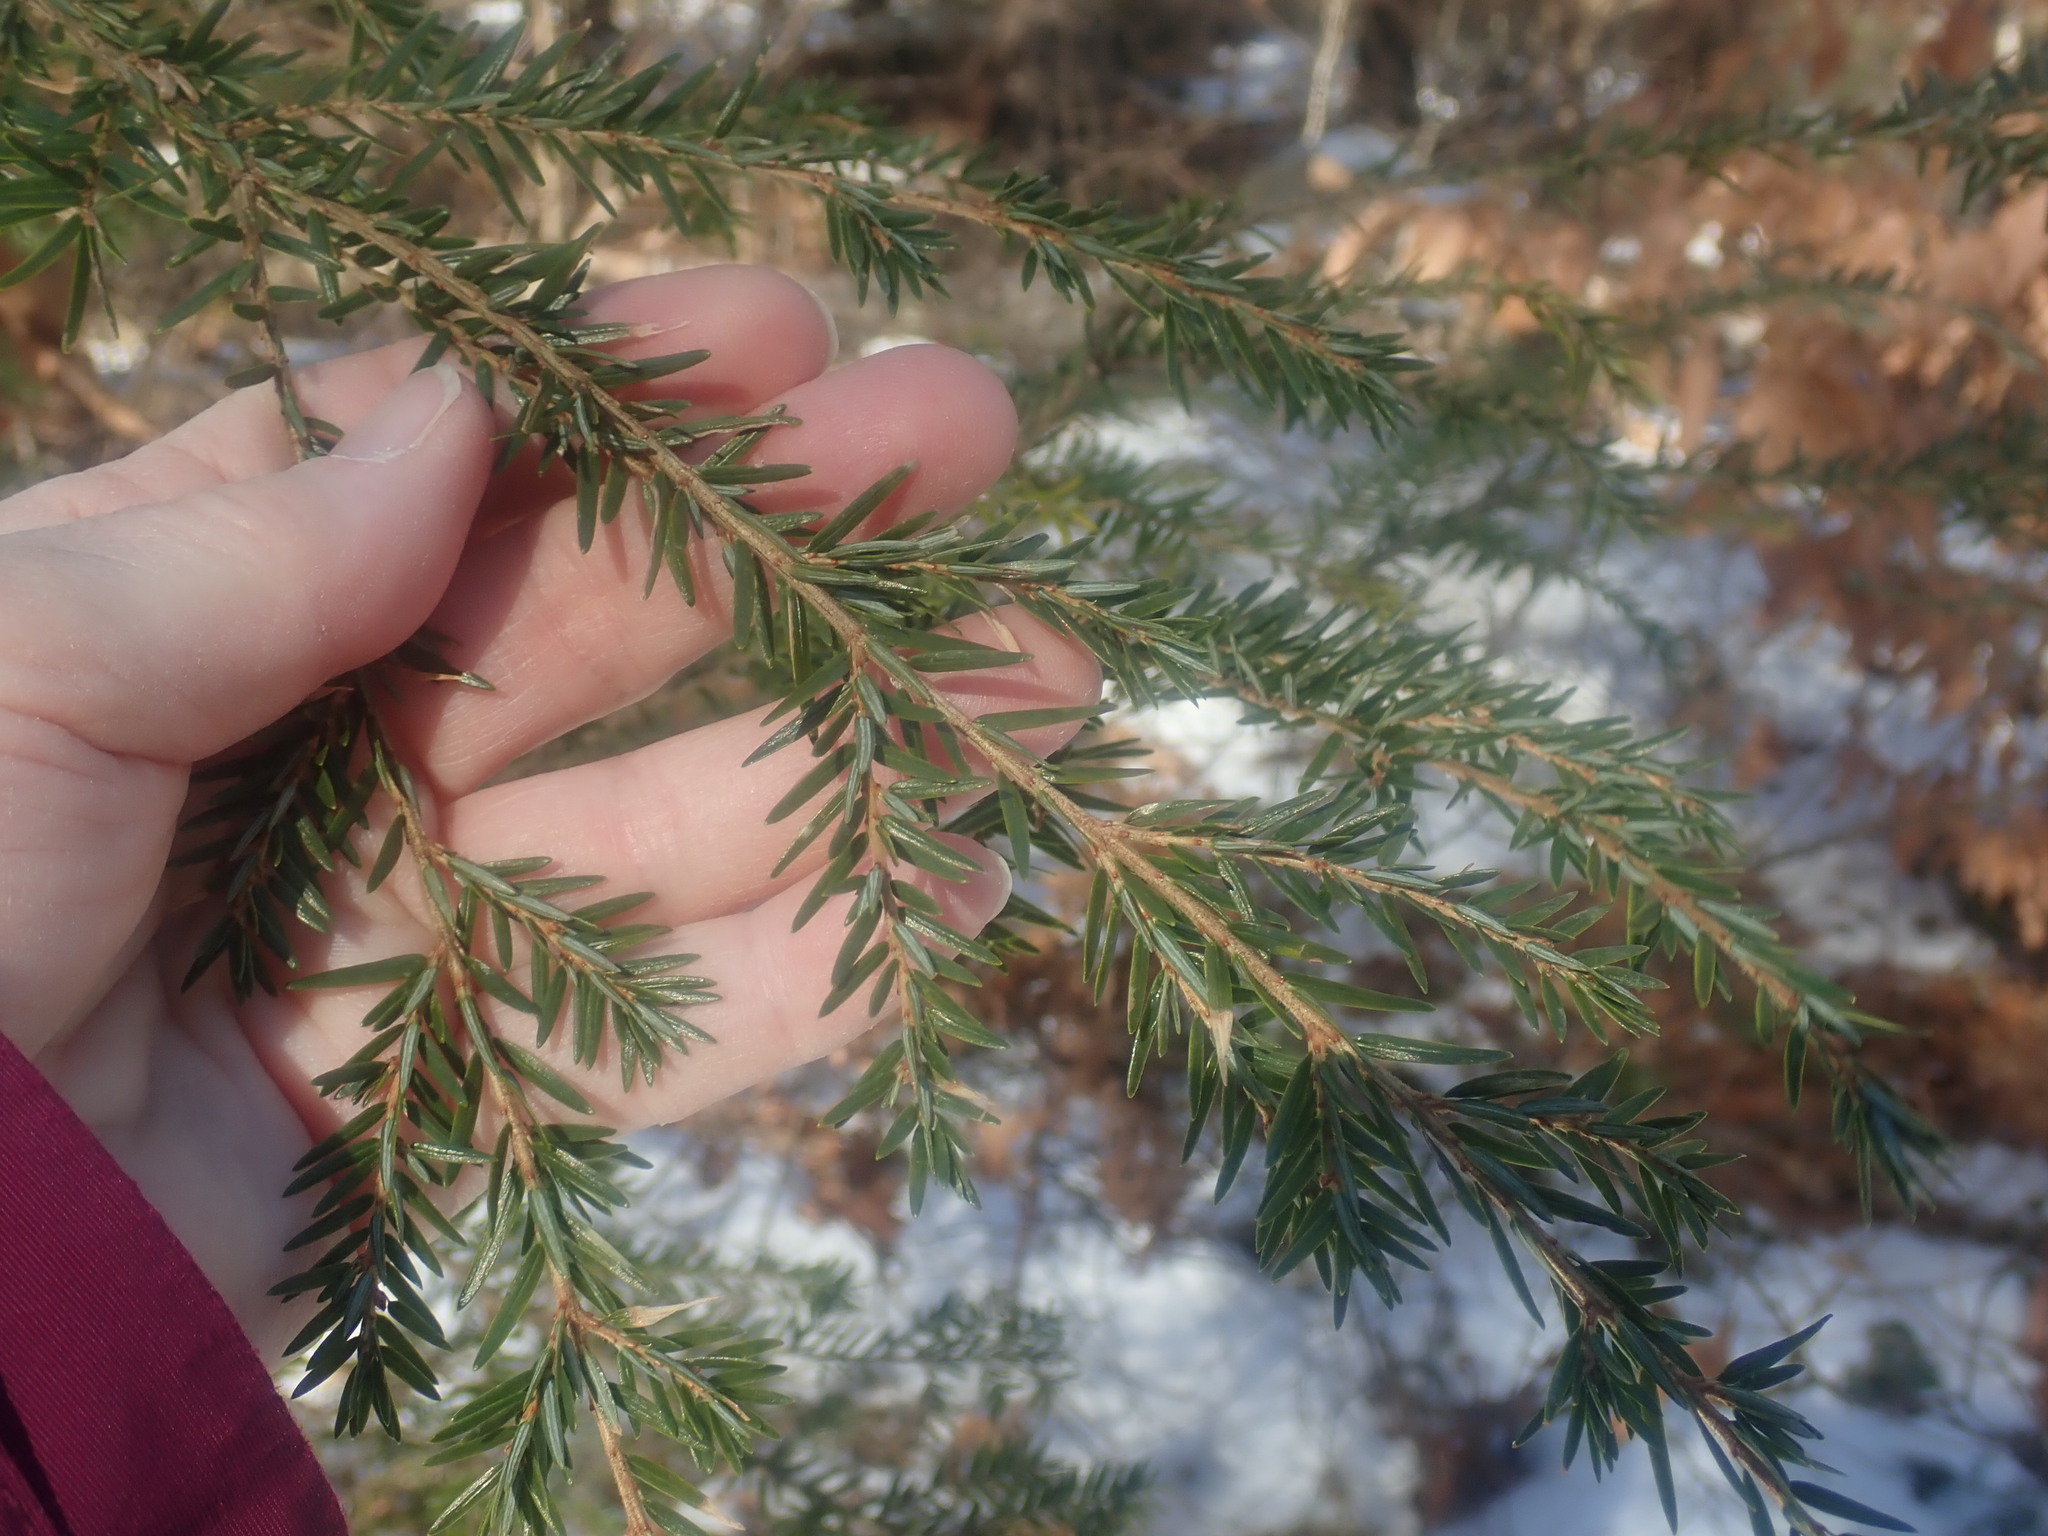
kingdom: Plantae
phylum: Tracheophyta
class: Pinopsida
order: Pinales
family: Pinaceae
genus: Tsuga
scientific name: Tsuga canadensis
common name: Eastern hemlock
